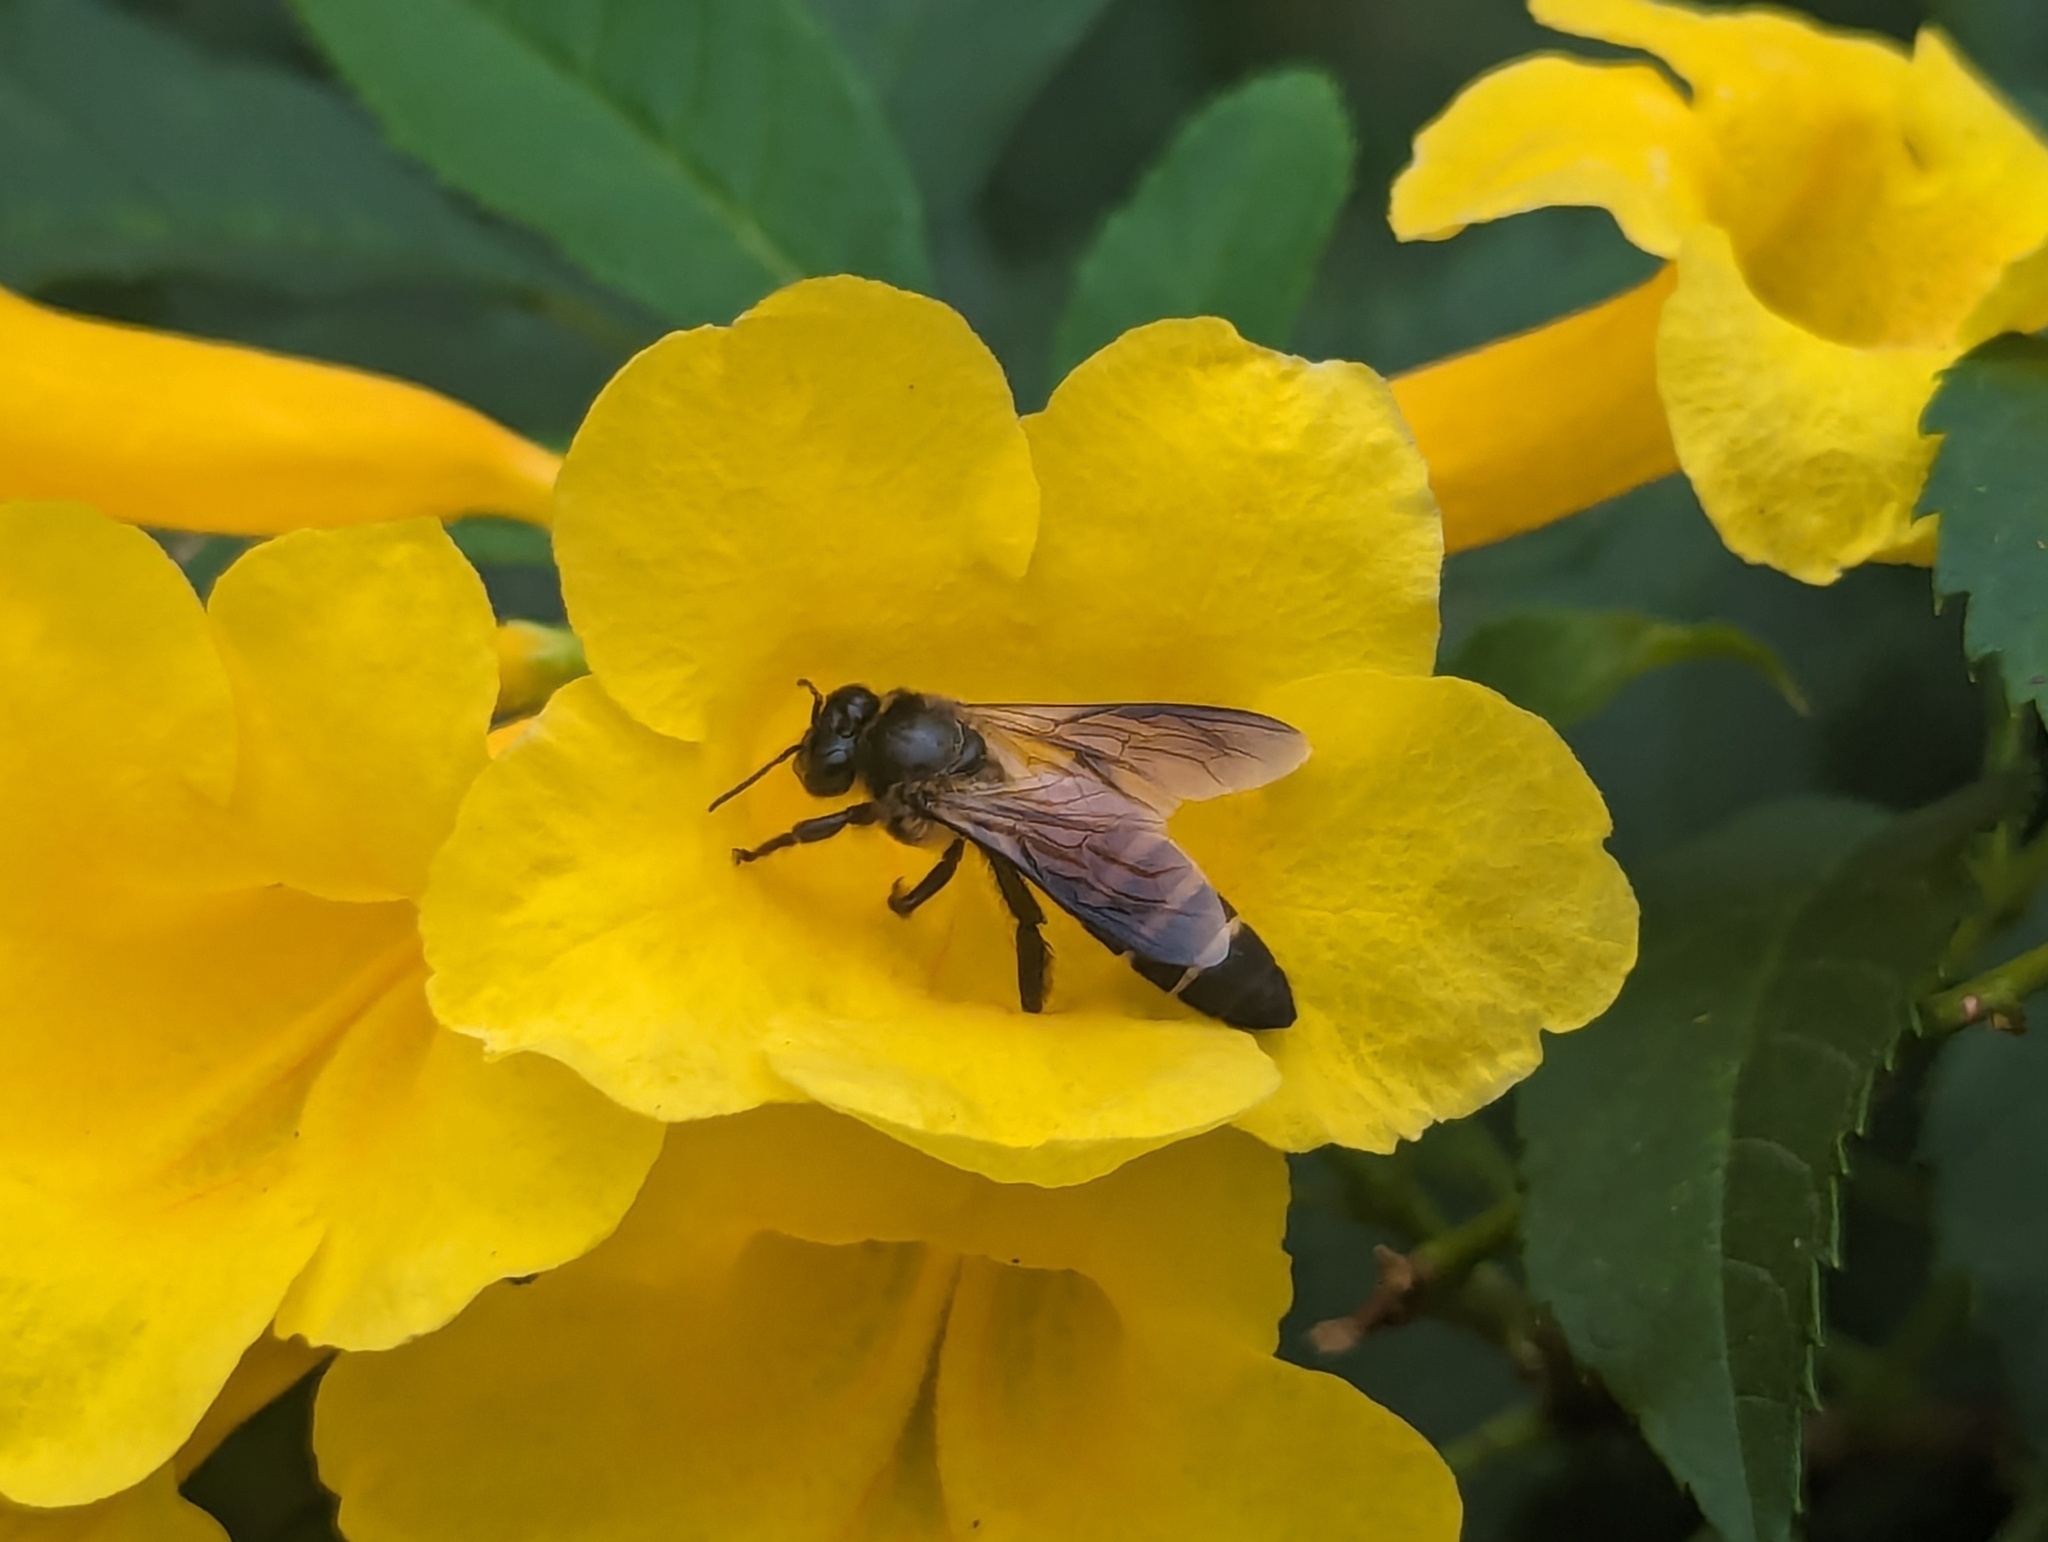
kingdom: Animalia
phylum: Arthropoda
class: Insecta
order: Hymenoptera
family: Apidae
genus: Apis
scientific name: Apis dorsata
